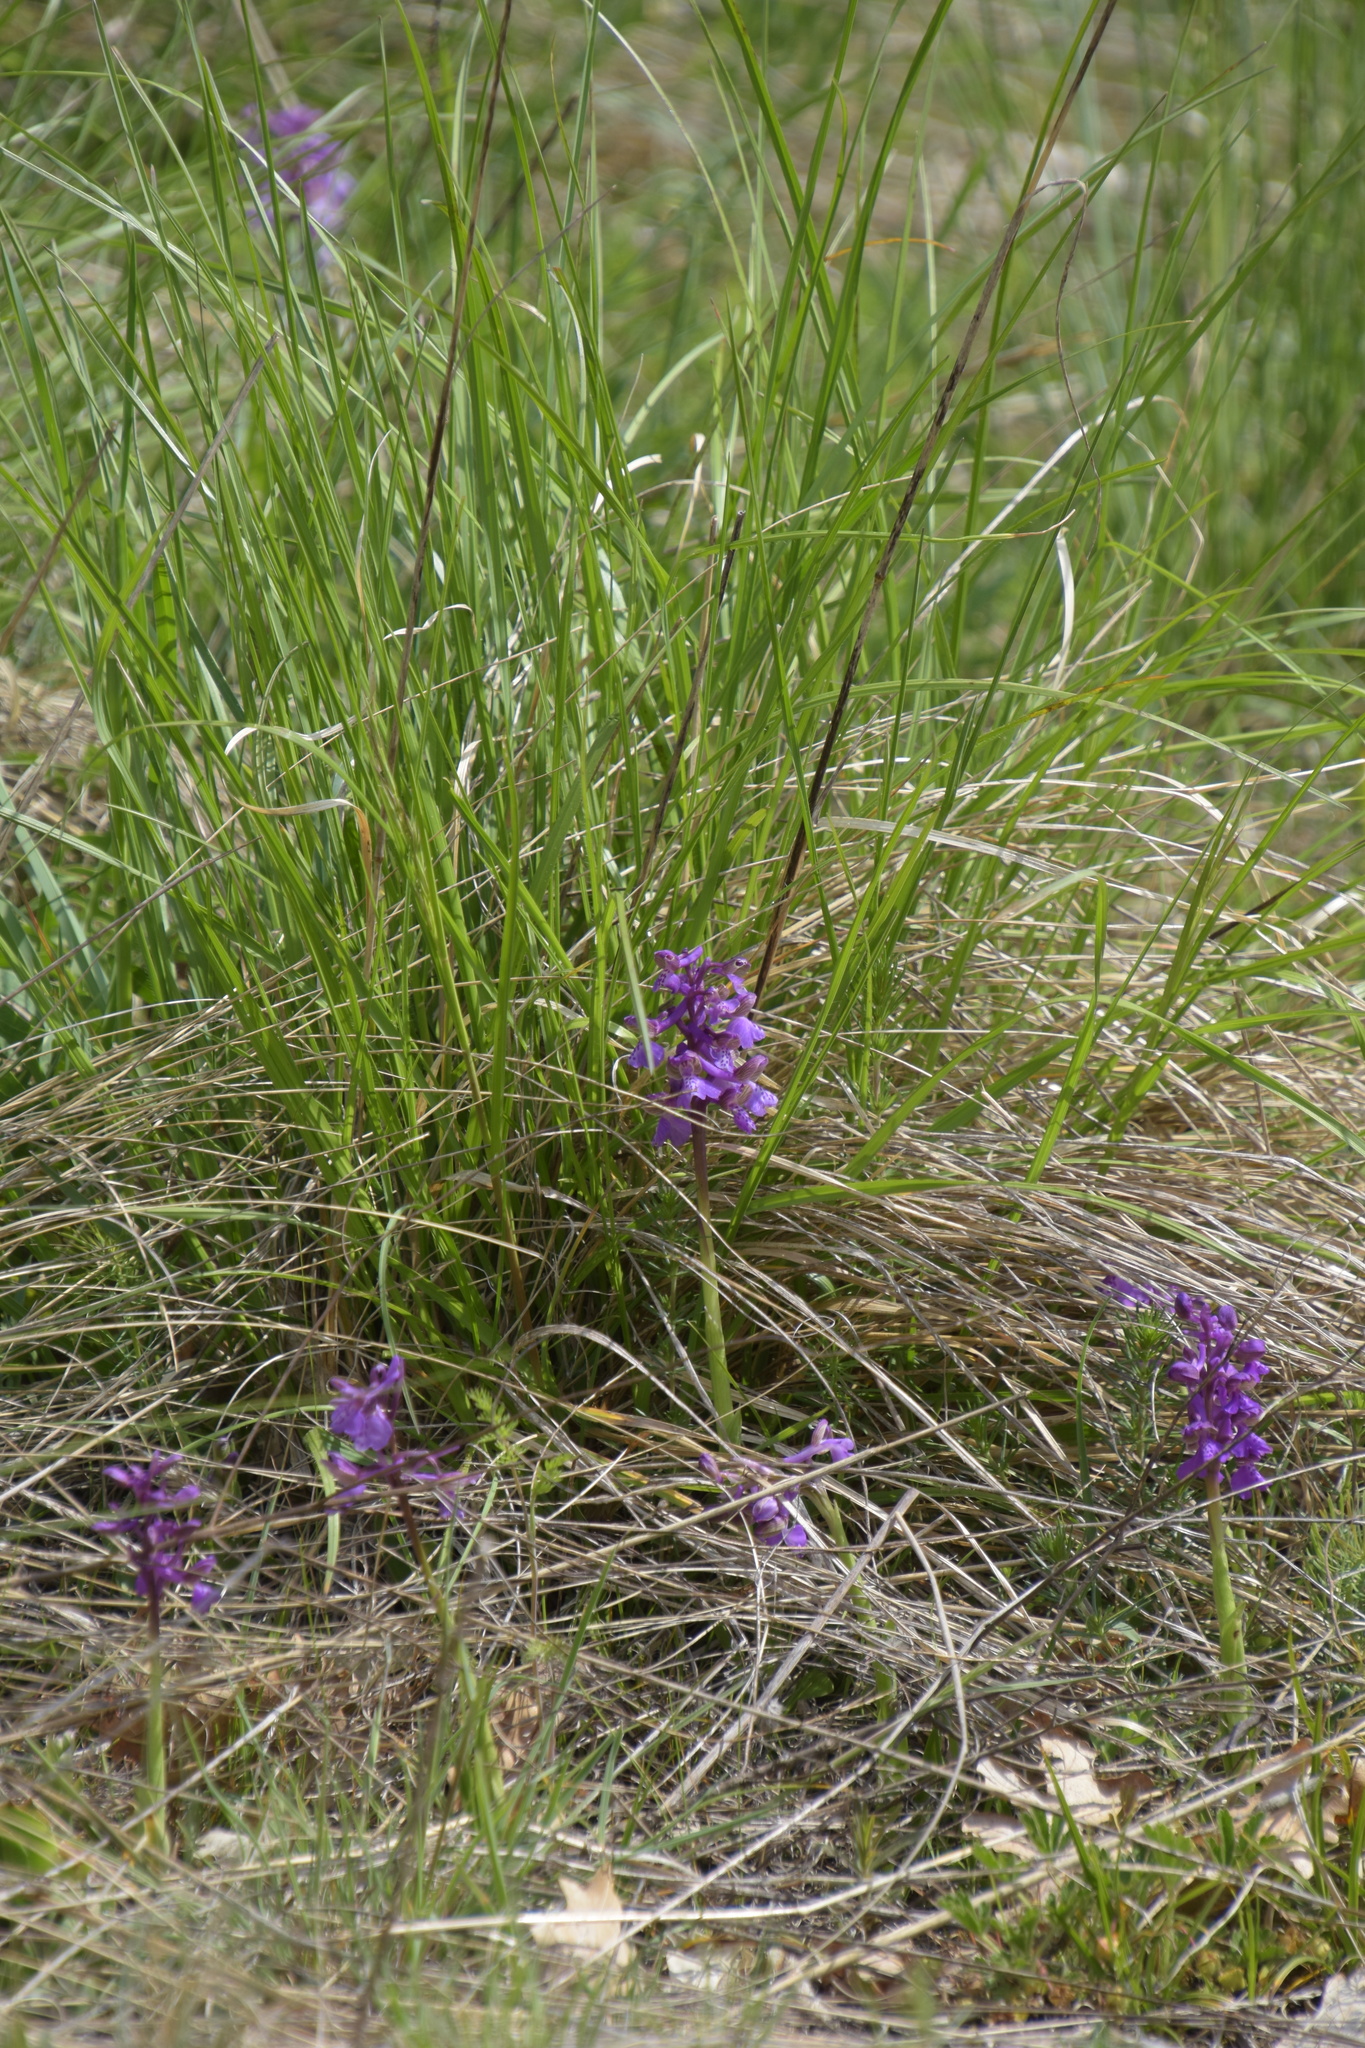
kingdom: Plantae
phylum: Tracheophyta
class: Liliopsida
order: Asparagales
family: Orchidaceae
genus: Anacamptis
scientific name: Anacamptis morio
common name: Green-winged orchid
